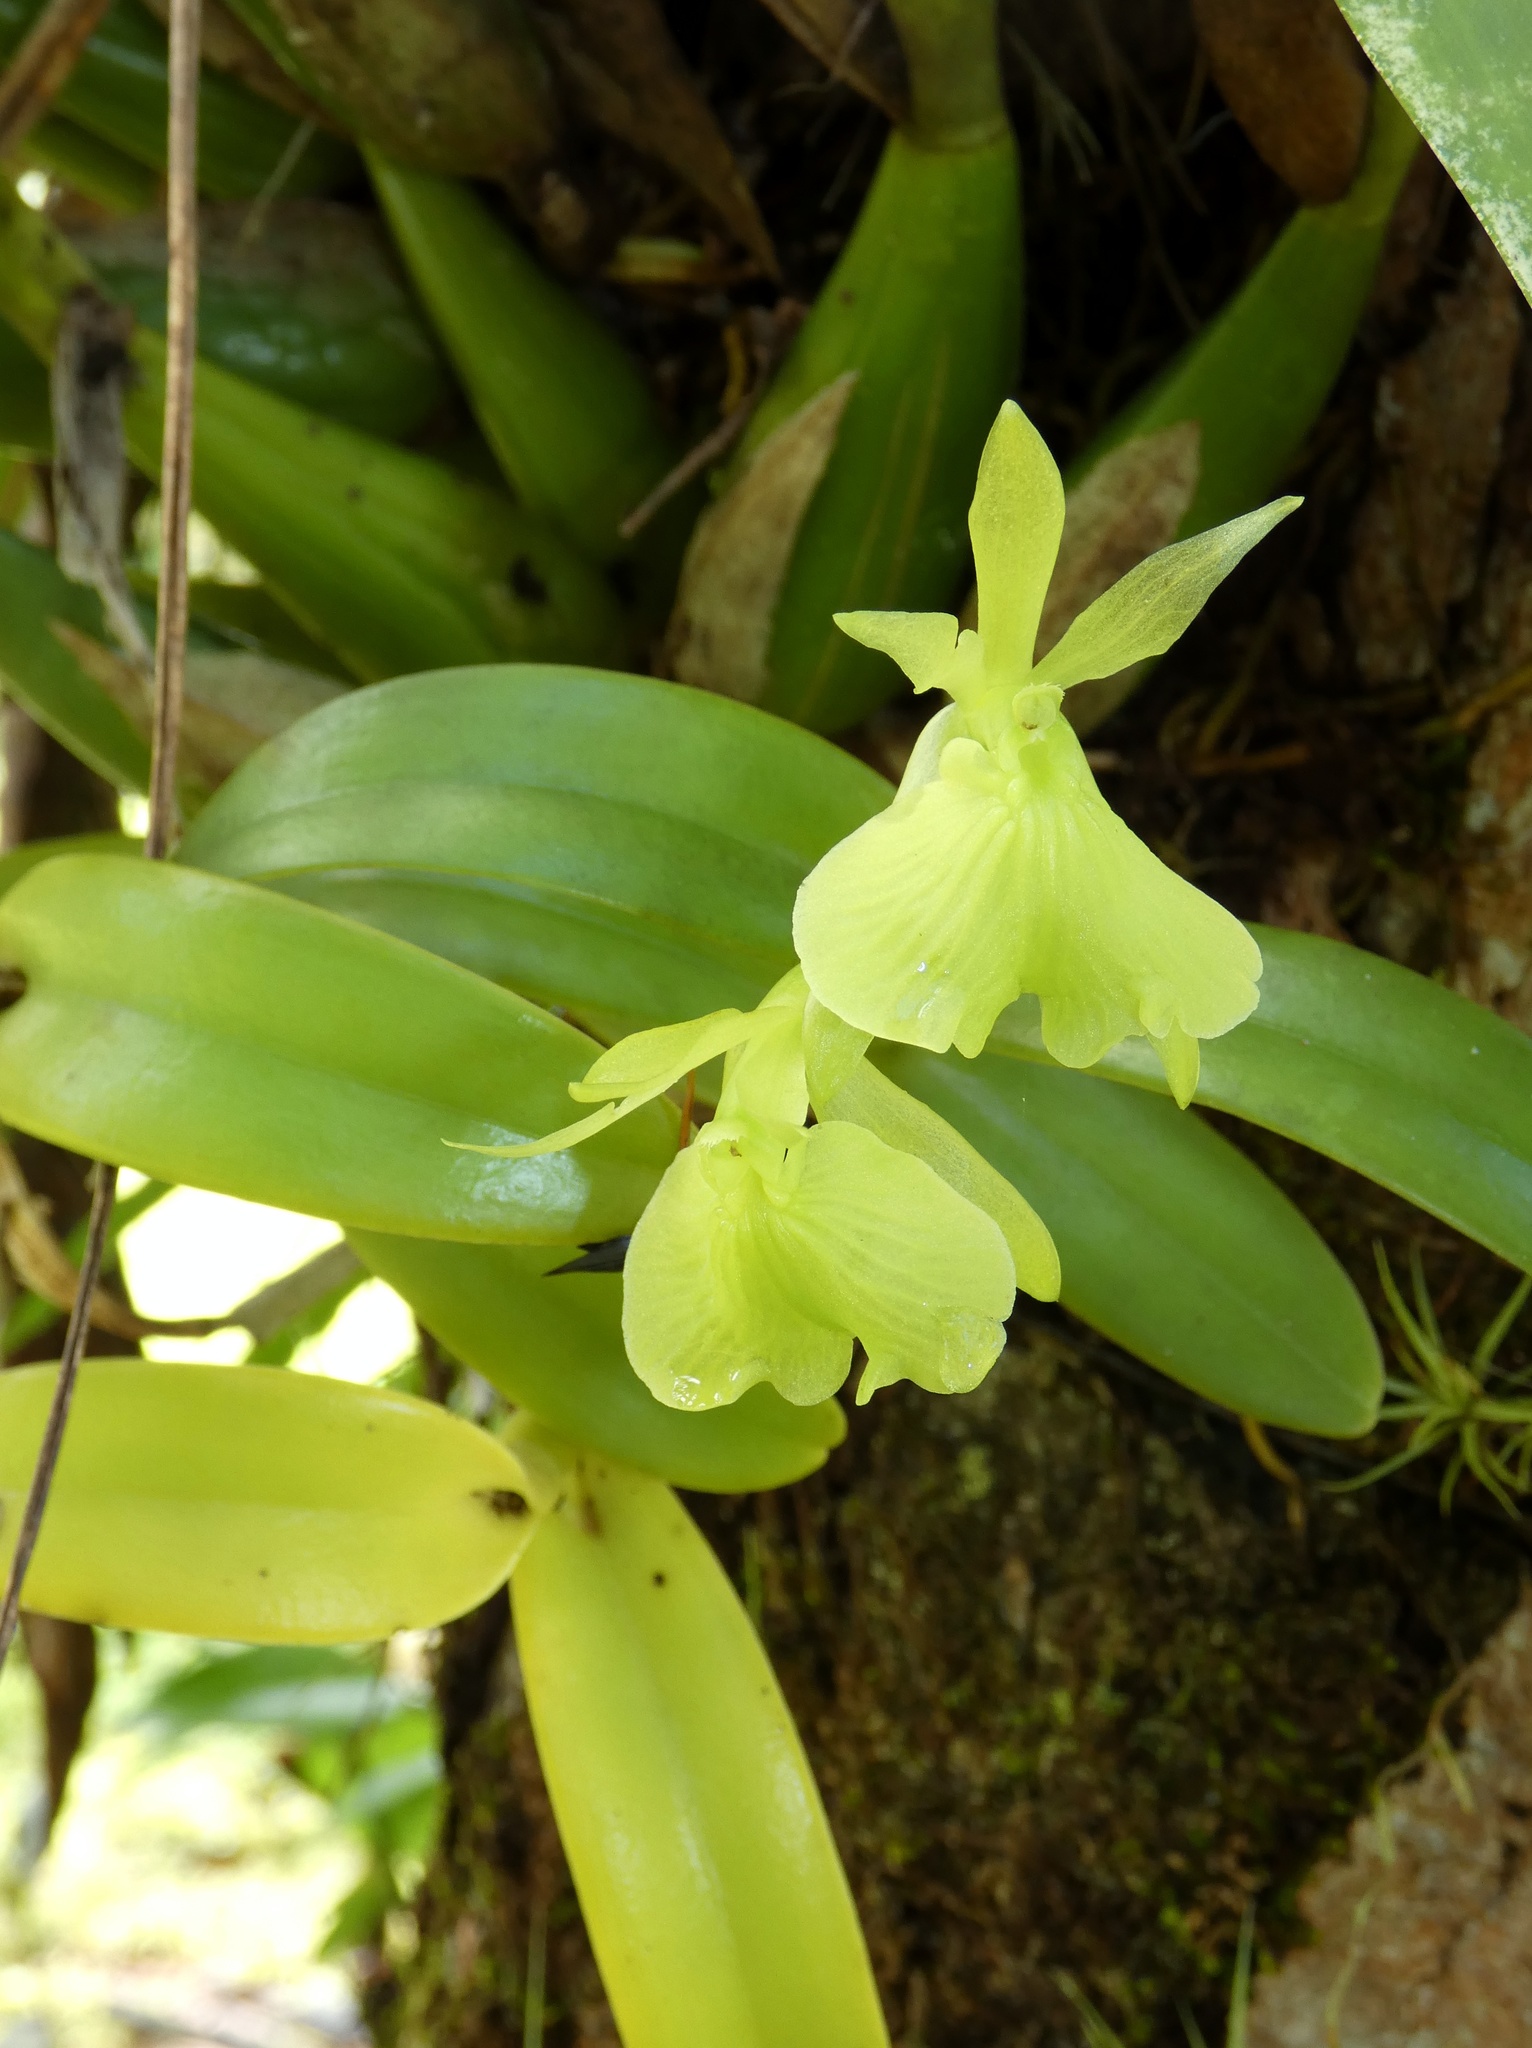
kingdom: Plantae
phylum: Tracheophyta
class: Liliopsida
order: Asparagales
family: Orchidaceae
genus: Epidendrum
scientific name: Epidendrum barbeyanum
